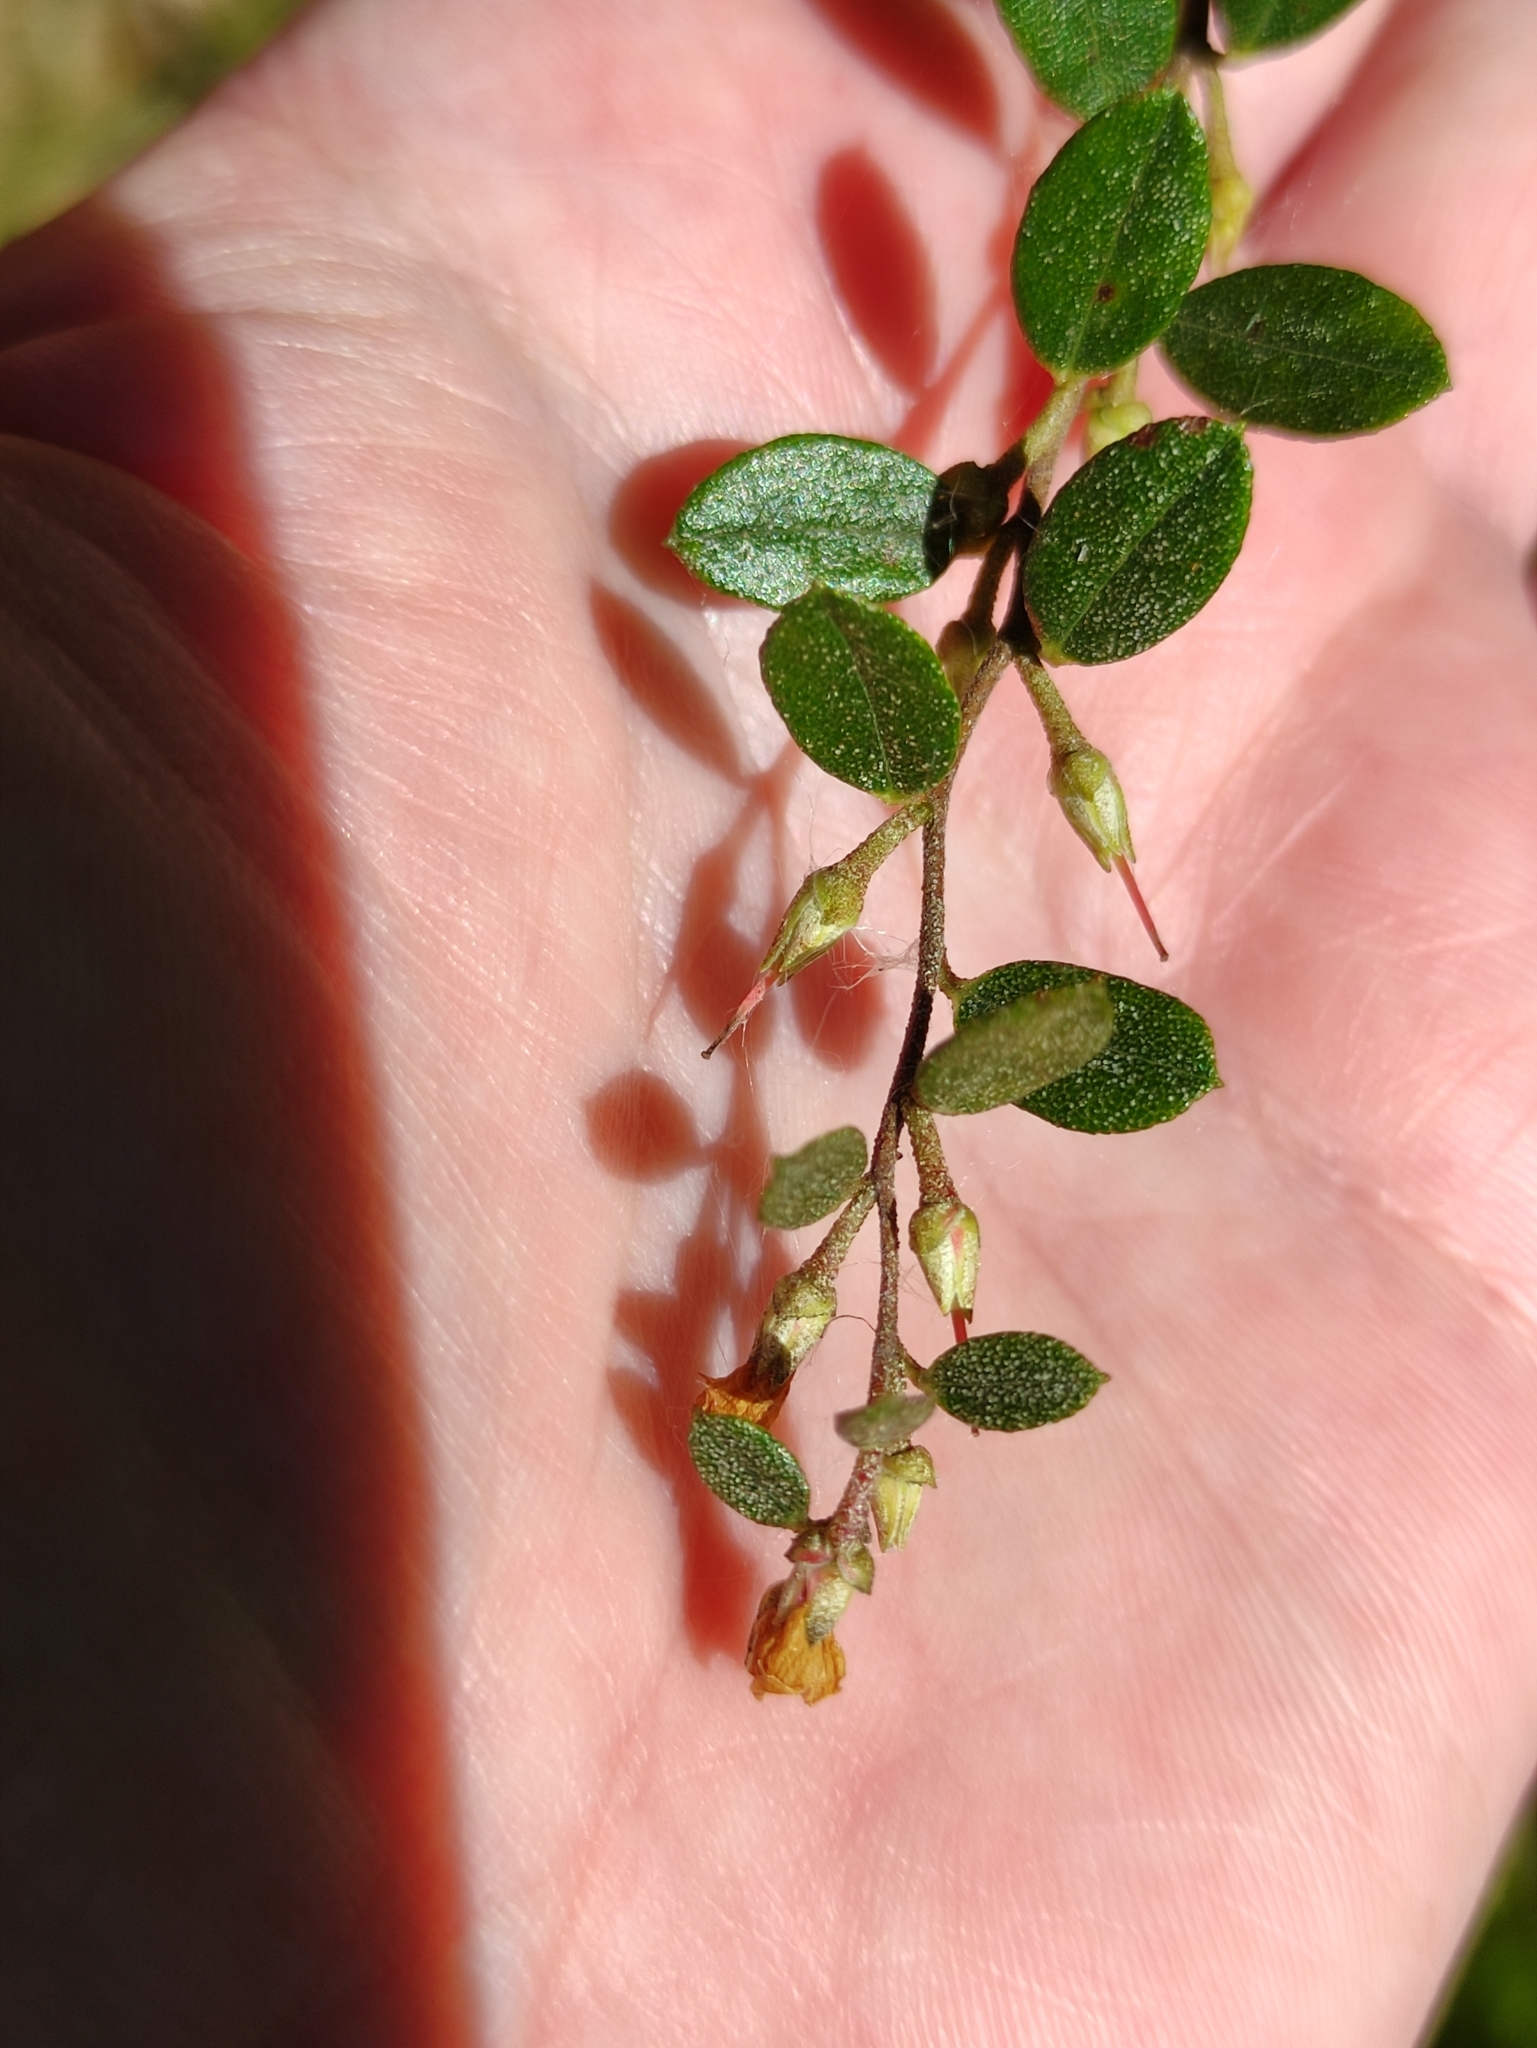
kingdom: Plantae
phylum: Tracheophyta
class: Magnoliopsida
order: Ericales
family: Ericaceae
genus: Chamaedaphne
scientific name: Chamaedaphne calyculata
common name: Leatherleaf
